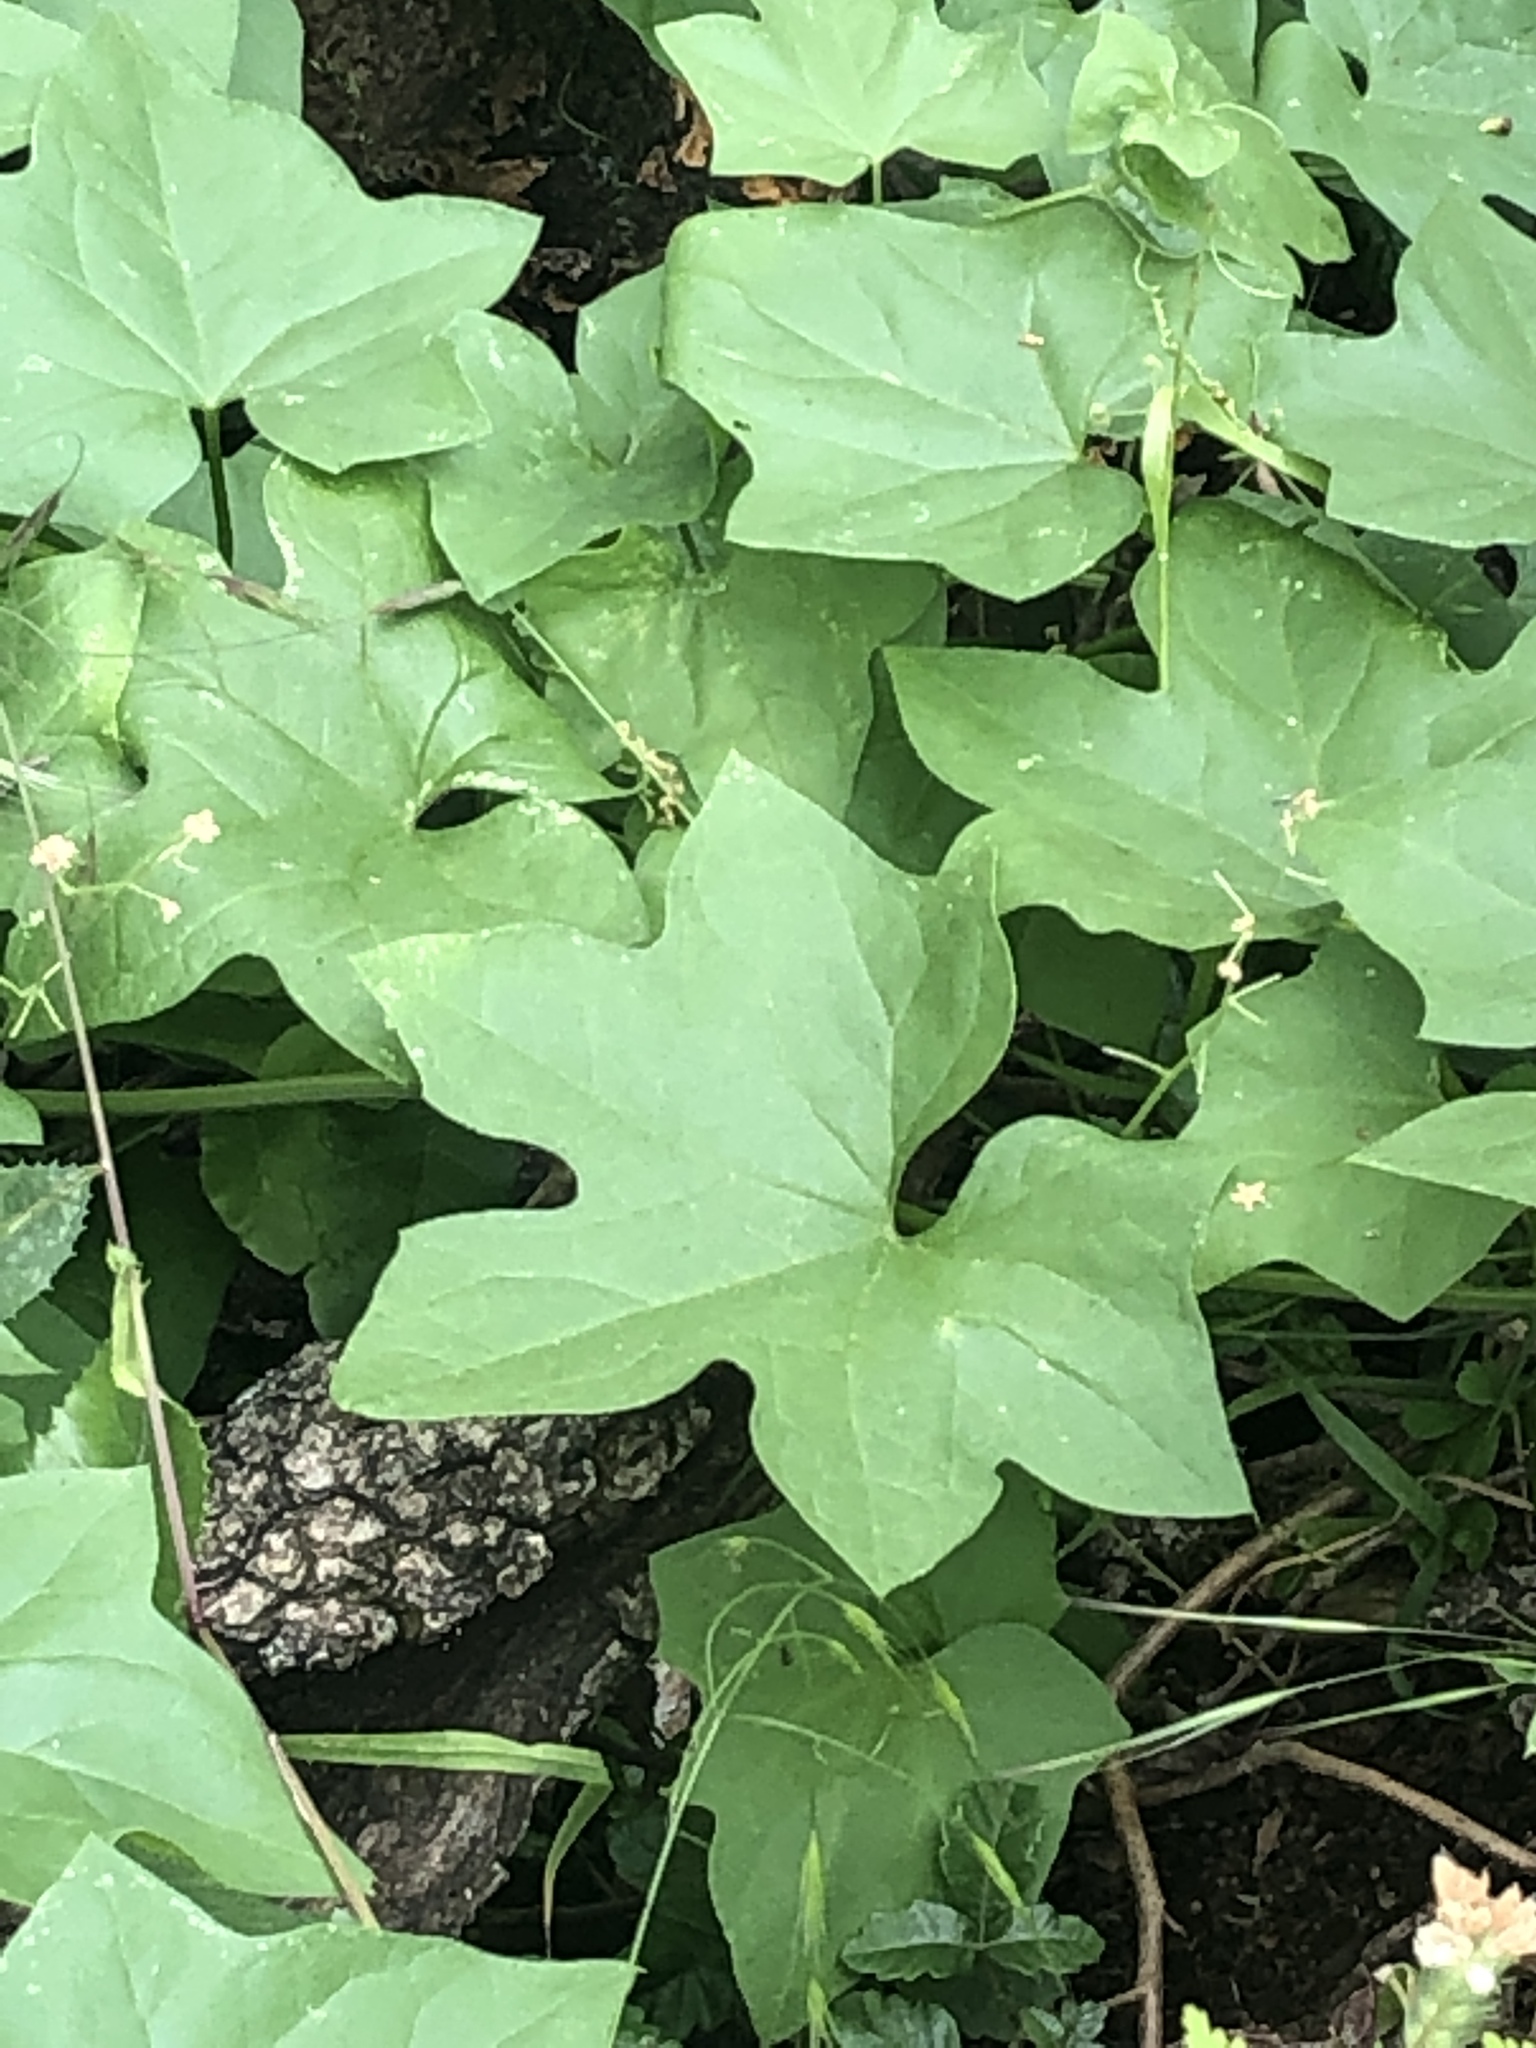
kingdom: Plantae
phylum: Tracheophyta
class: Magnoliopsida
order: Cucurbitales
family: Cucurbitaceae
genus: Marah
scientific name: Marah fabacea
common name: California manroot
